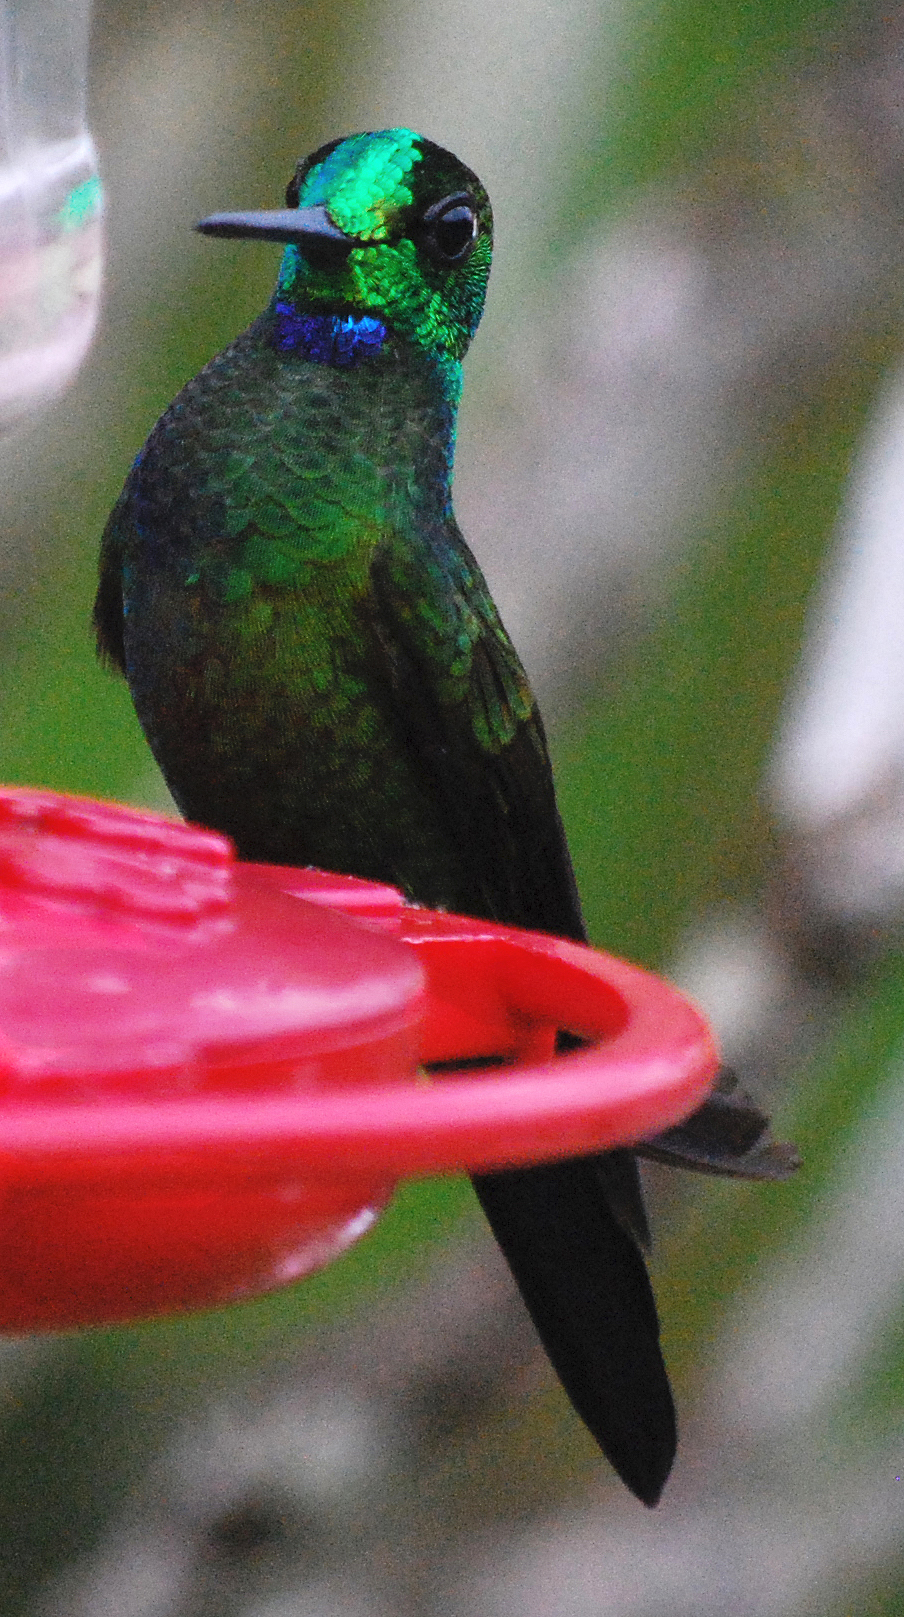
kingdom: Animalia
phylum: Chordata
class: Aves
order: Apodiformes
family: Trochilidae
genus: Heliodoxa
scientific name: Heliodoxa jacula
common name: Green-crowned brilliant
